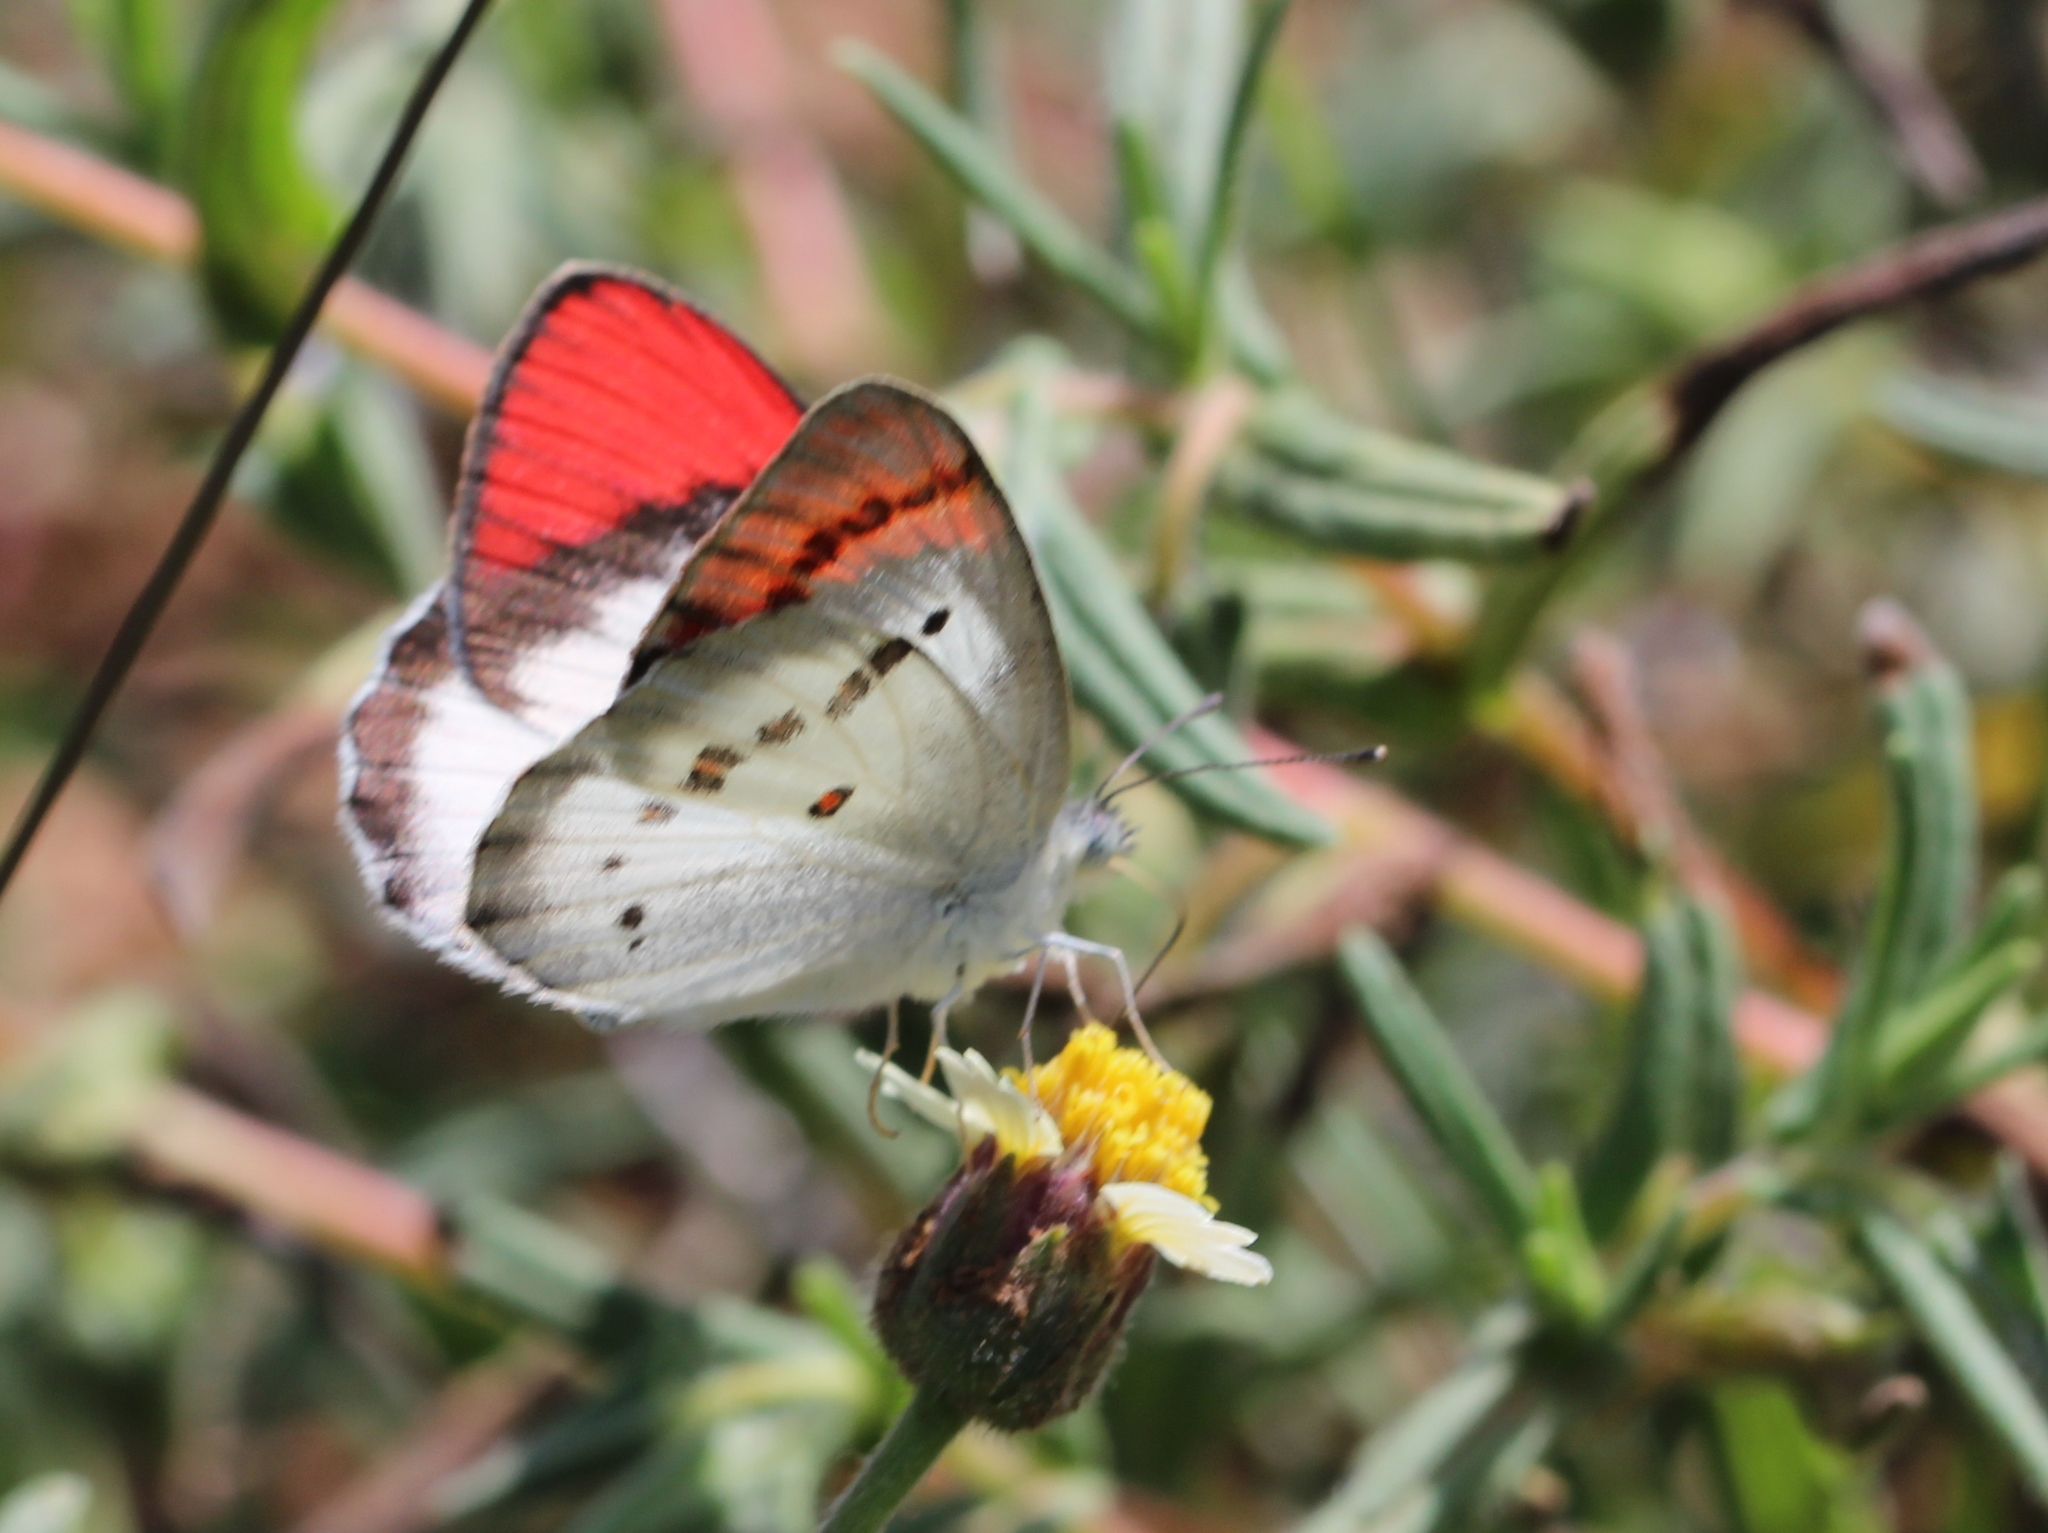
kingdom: Animalia
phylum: Arthropoda
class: Insecta
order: Lepidoptera
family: Pieridae
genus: Colotis
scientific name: Colotis danae
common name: Crimson tip
